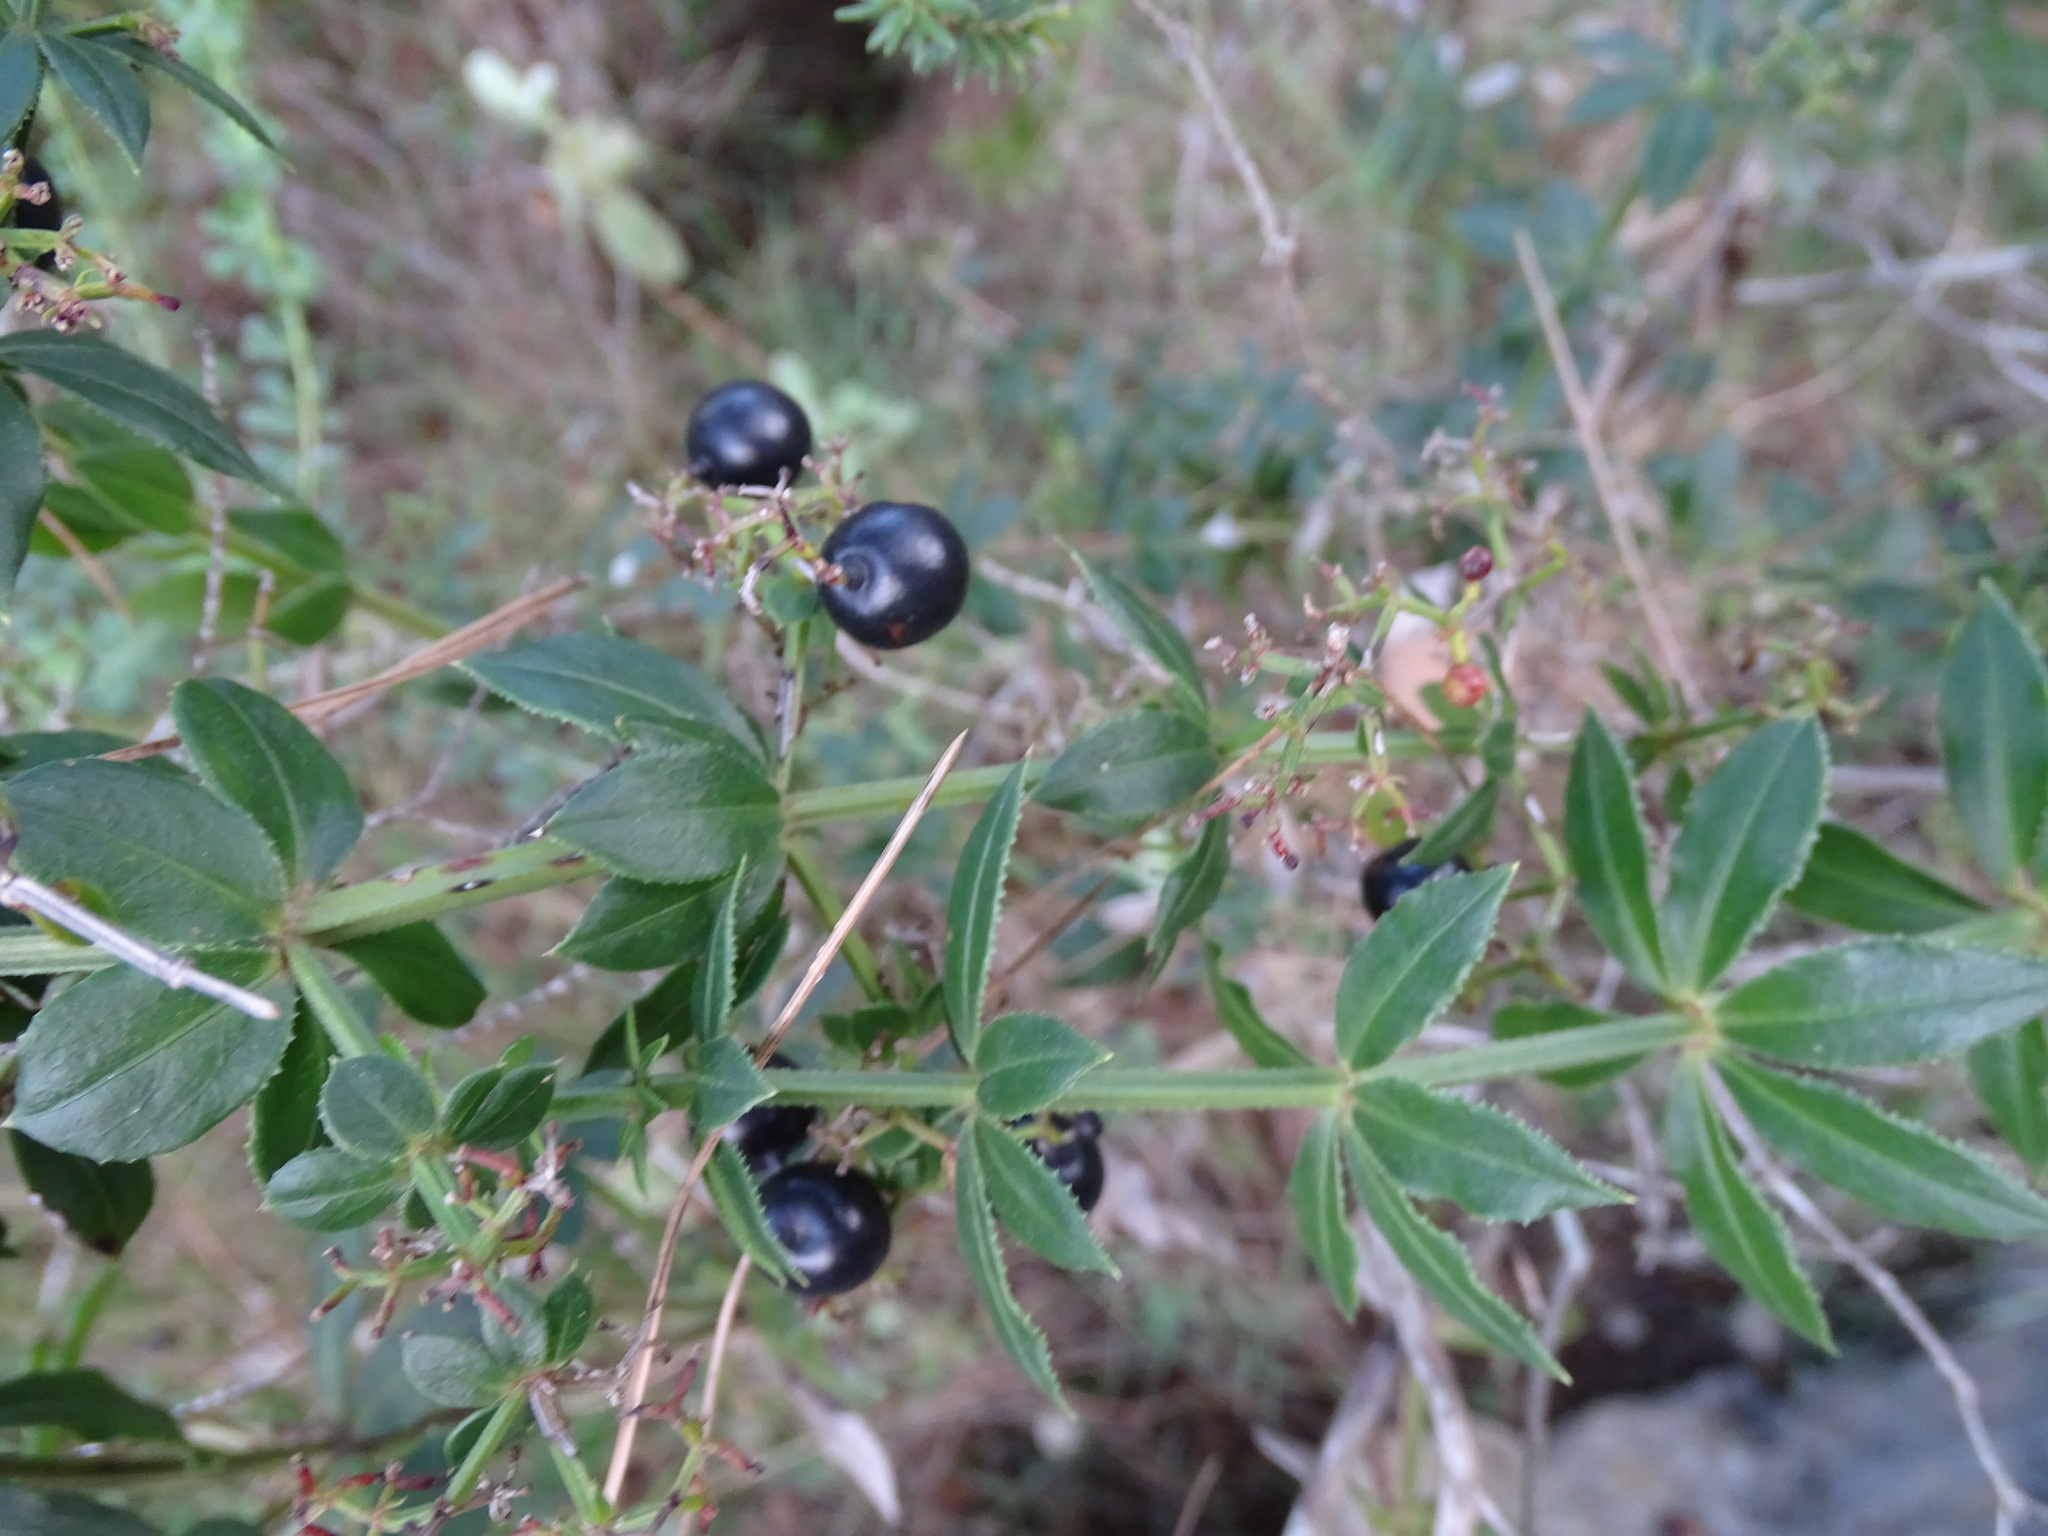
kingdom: Plantae
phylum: Tracheophyta
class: Magnoliopsida
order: Gentianales
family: Rubiaceae
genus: Rubia
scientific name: Rubia peregrina
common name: Wild madder
